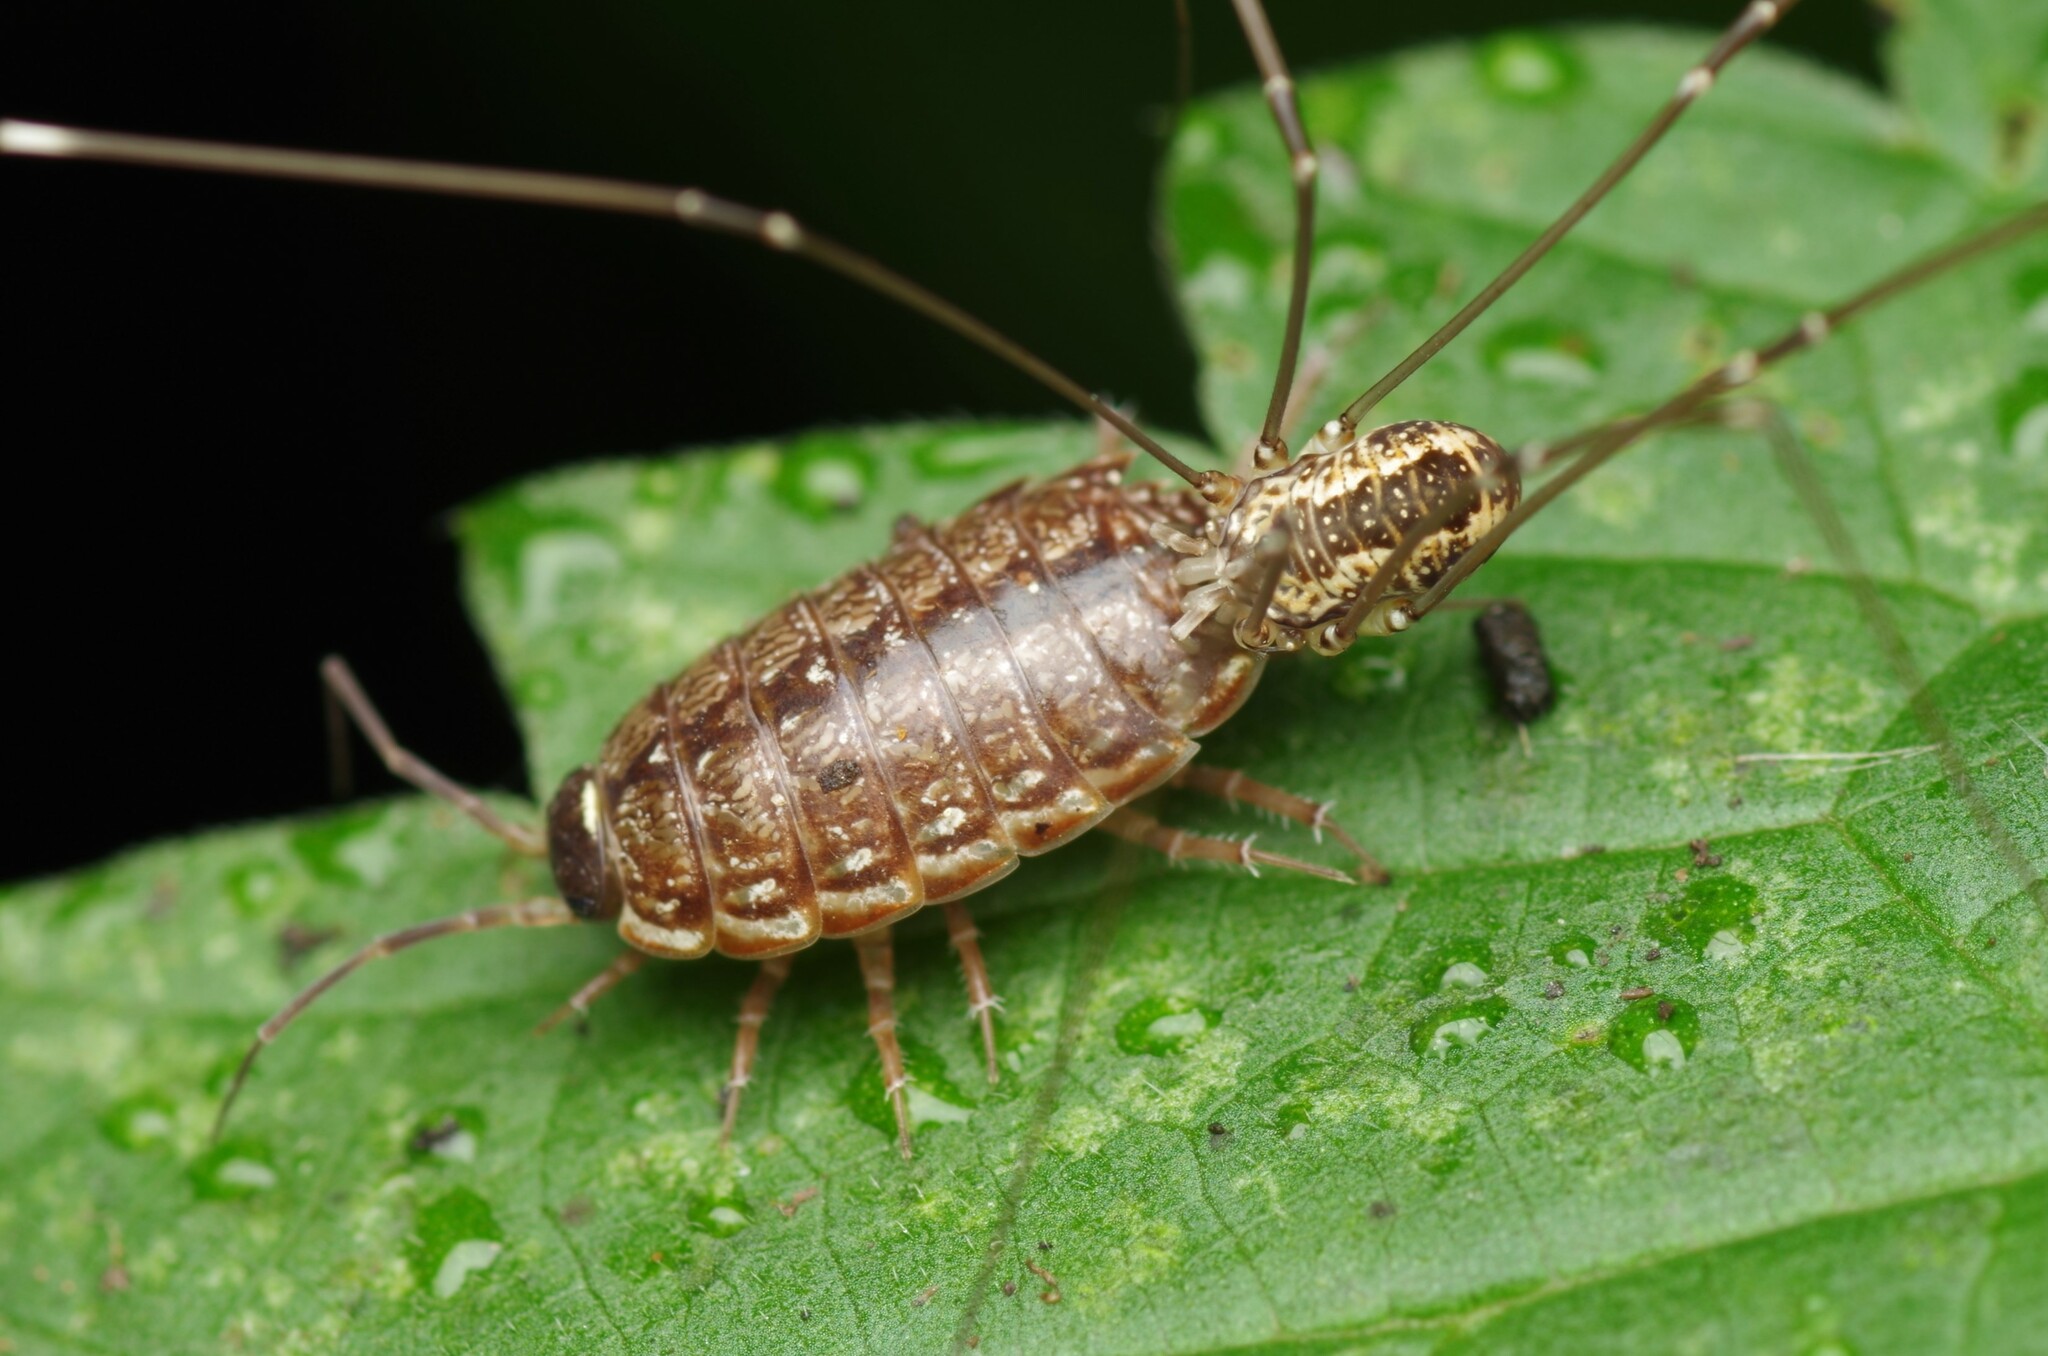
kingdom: Animalia
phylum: Arthropoda
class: Arachnida
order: Opiliones
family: Sclerosomatidae
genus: Leiobunum
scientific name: Leiobunum rotundum
